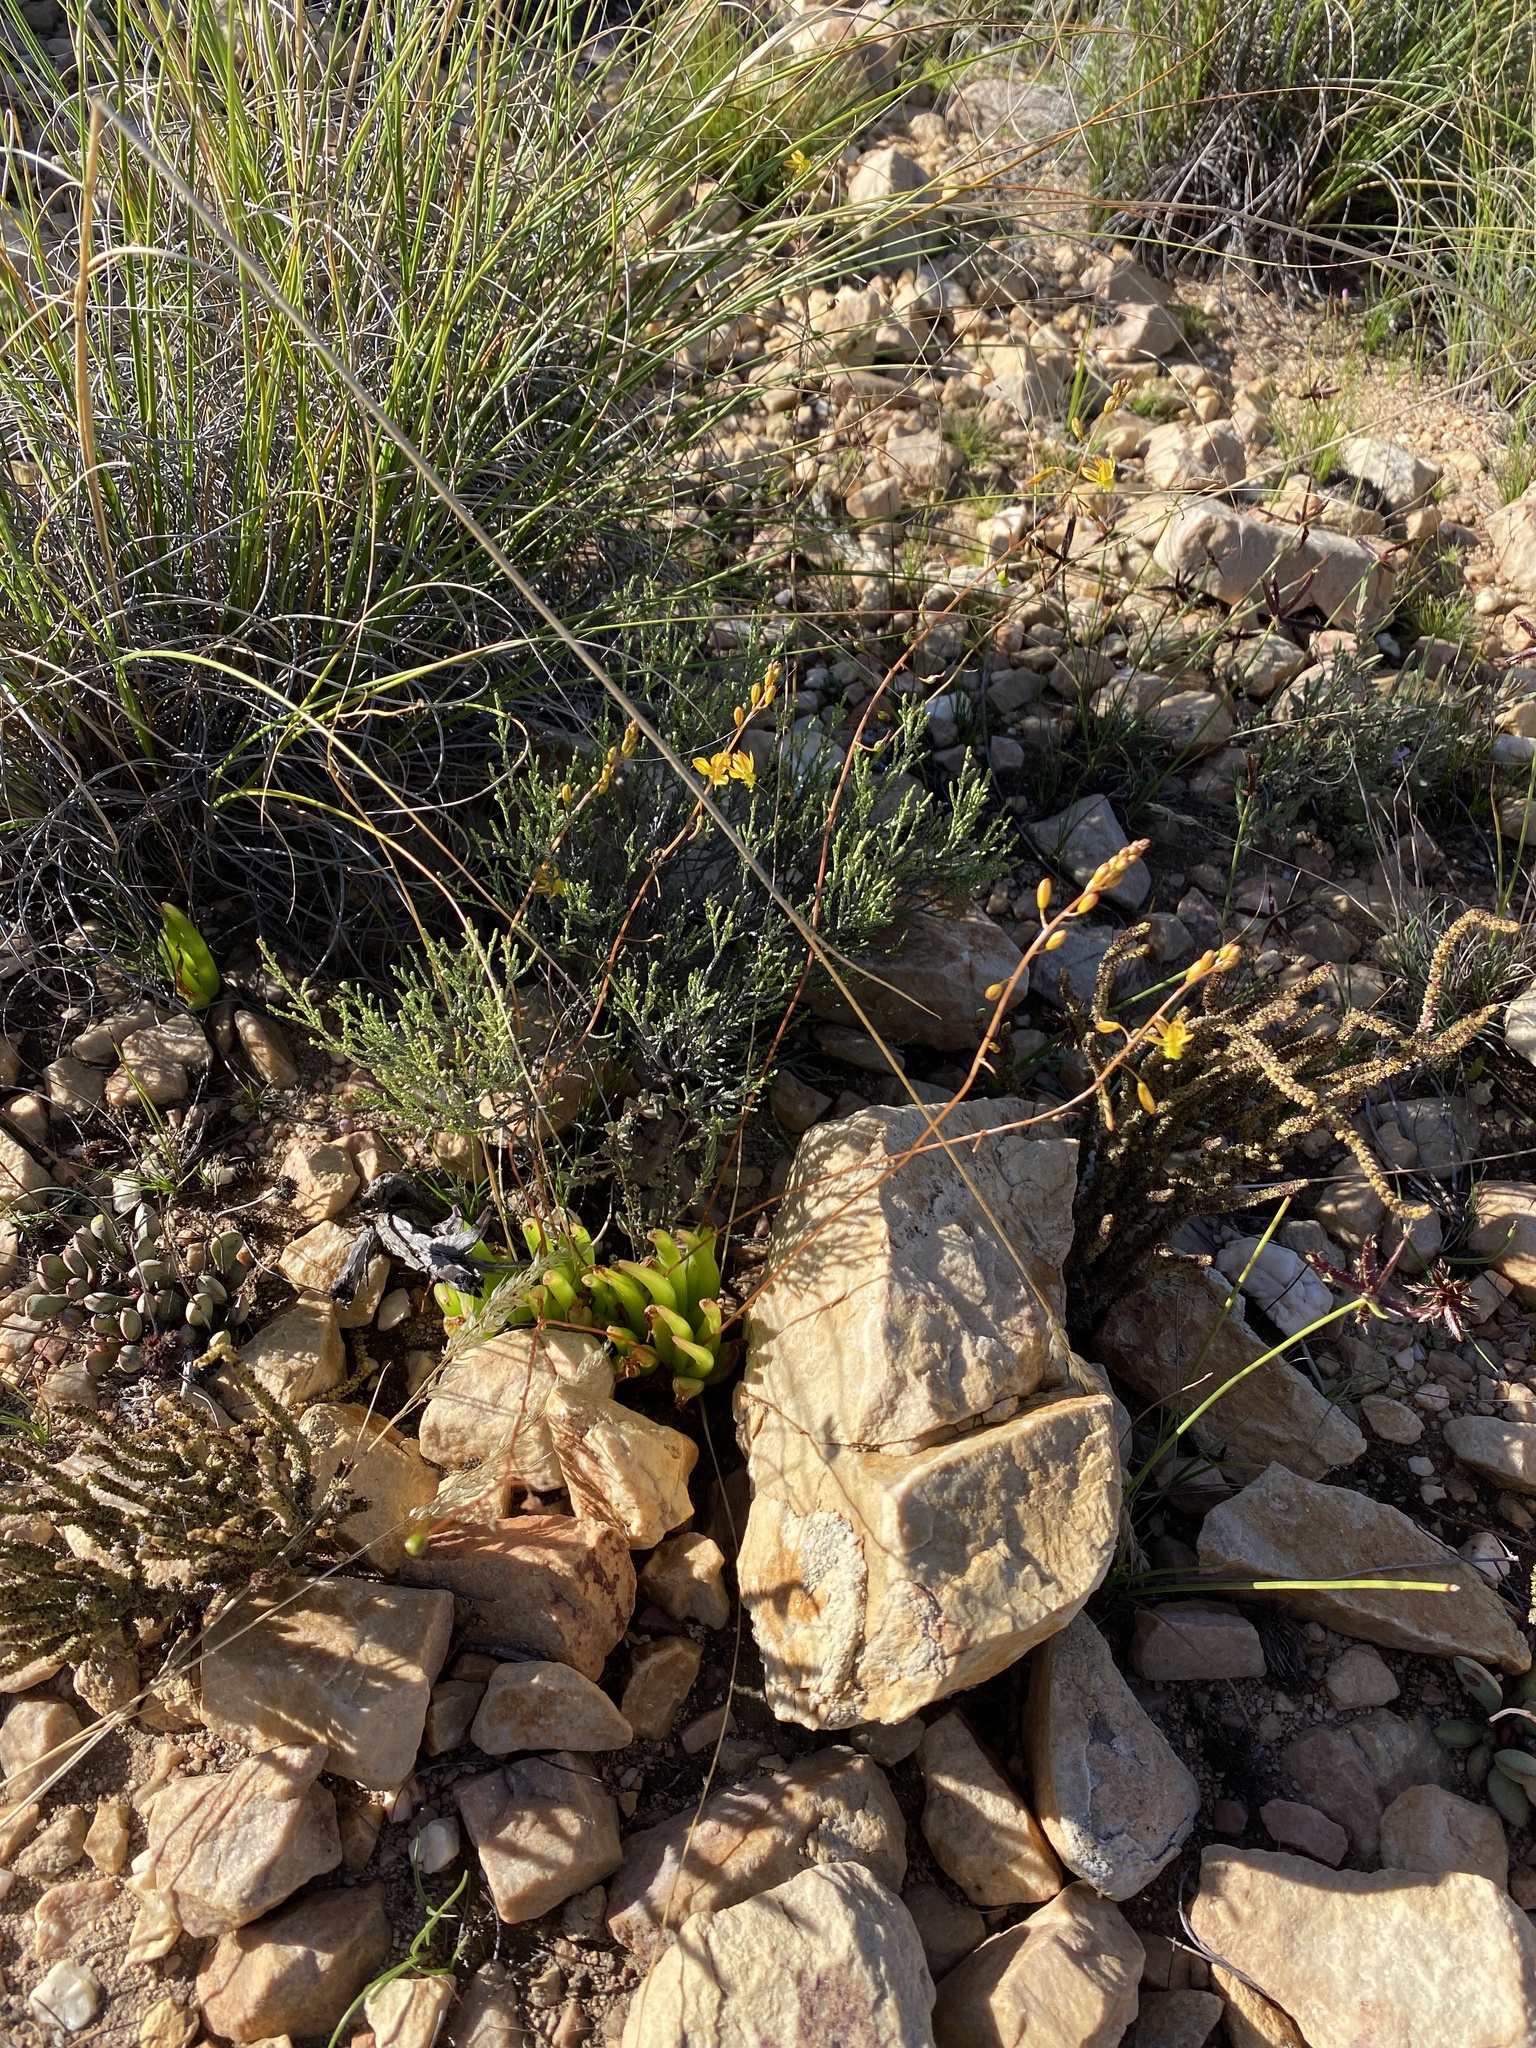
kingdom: Plantae
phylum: Tracheophyta
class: Liliopsida
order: Asparagales
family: Asphodelaceae
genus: Bulbine
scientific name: Bulbine rupicola
